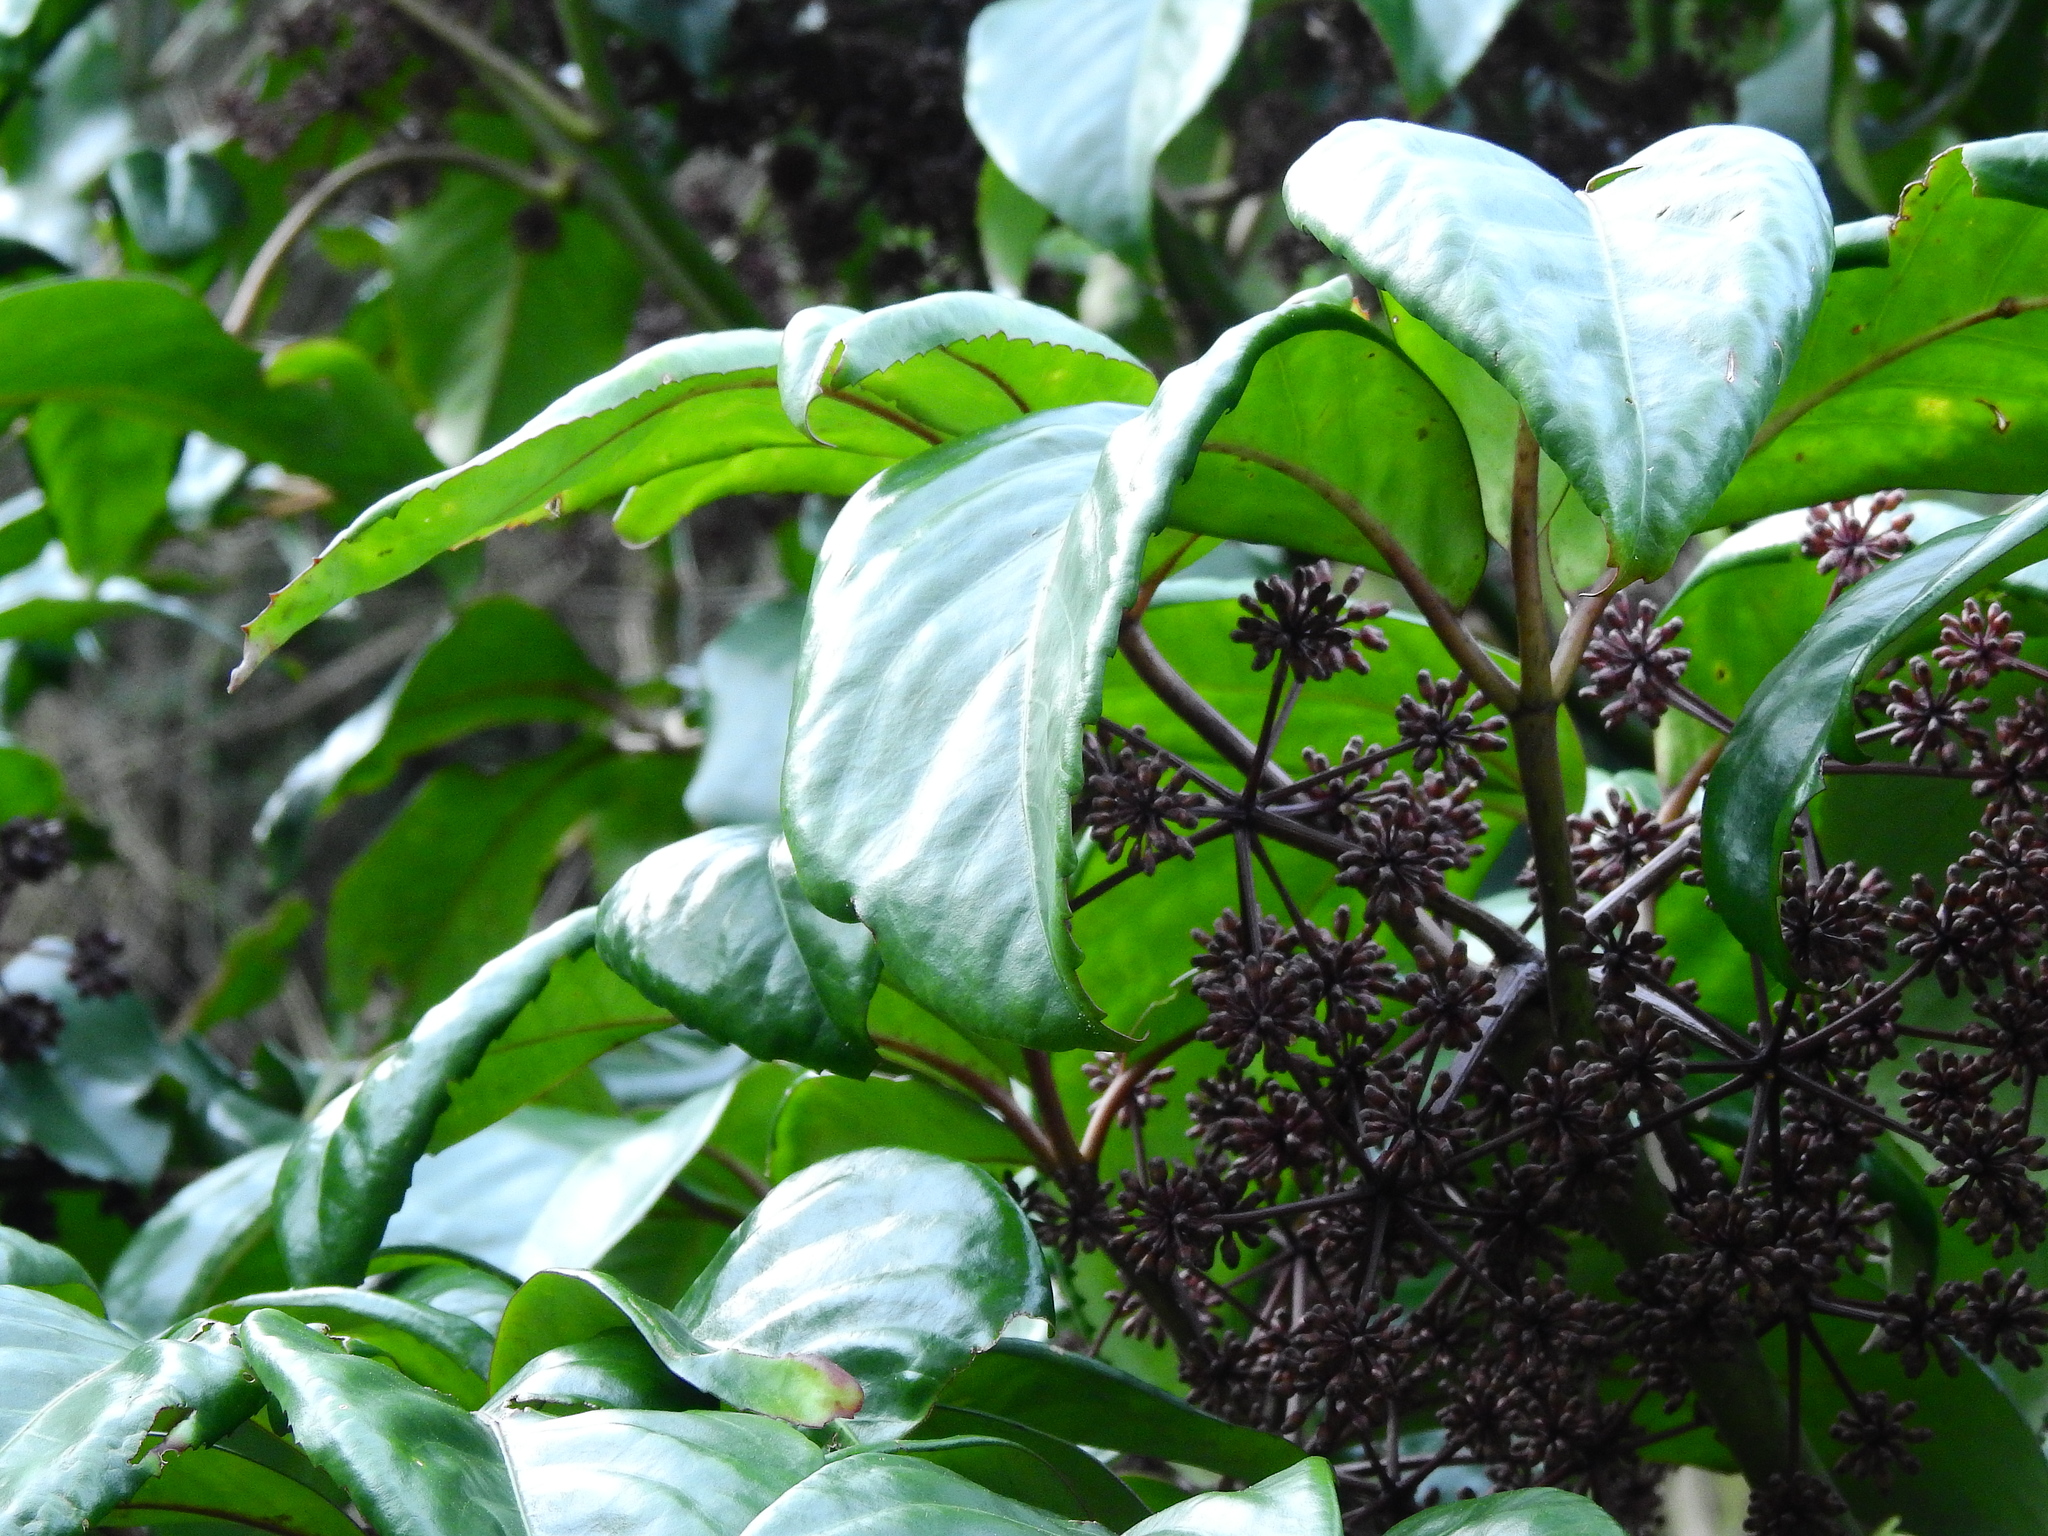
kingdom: Plantae
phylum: Tracheophyta
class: Magnoliopsida
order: Apiales
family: Araliaceae
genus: Neopanax
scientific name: Neopanax arboreus
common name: Five-fingers
